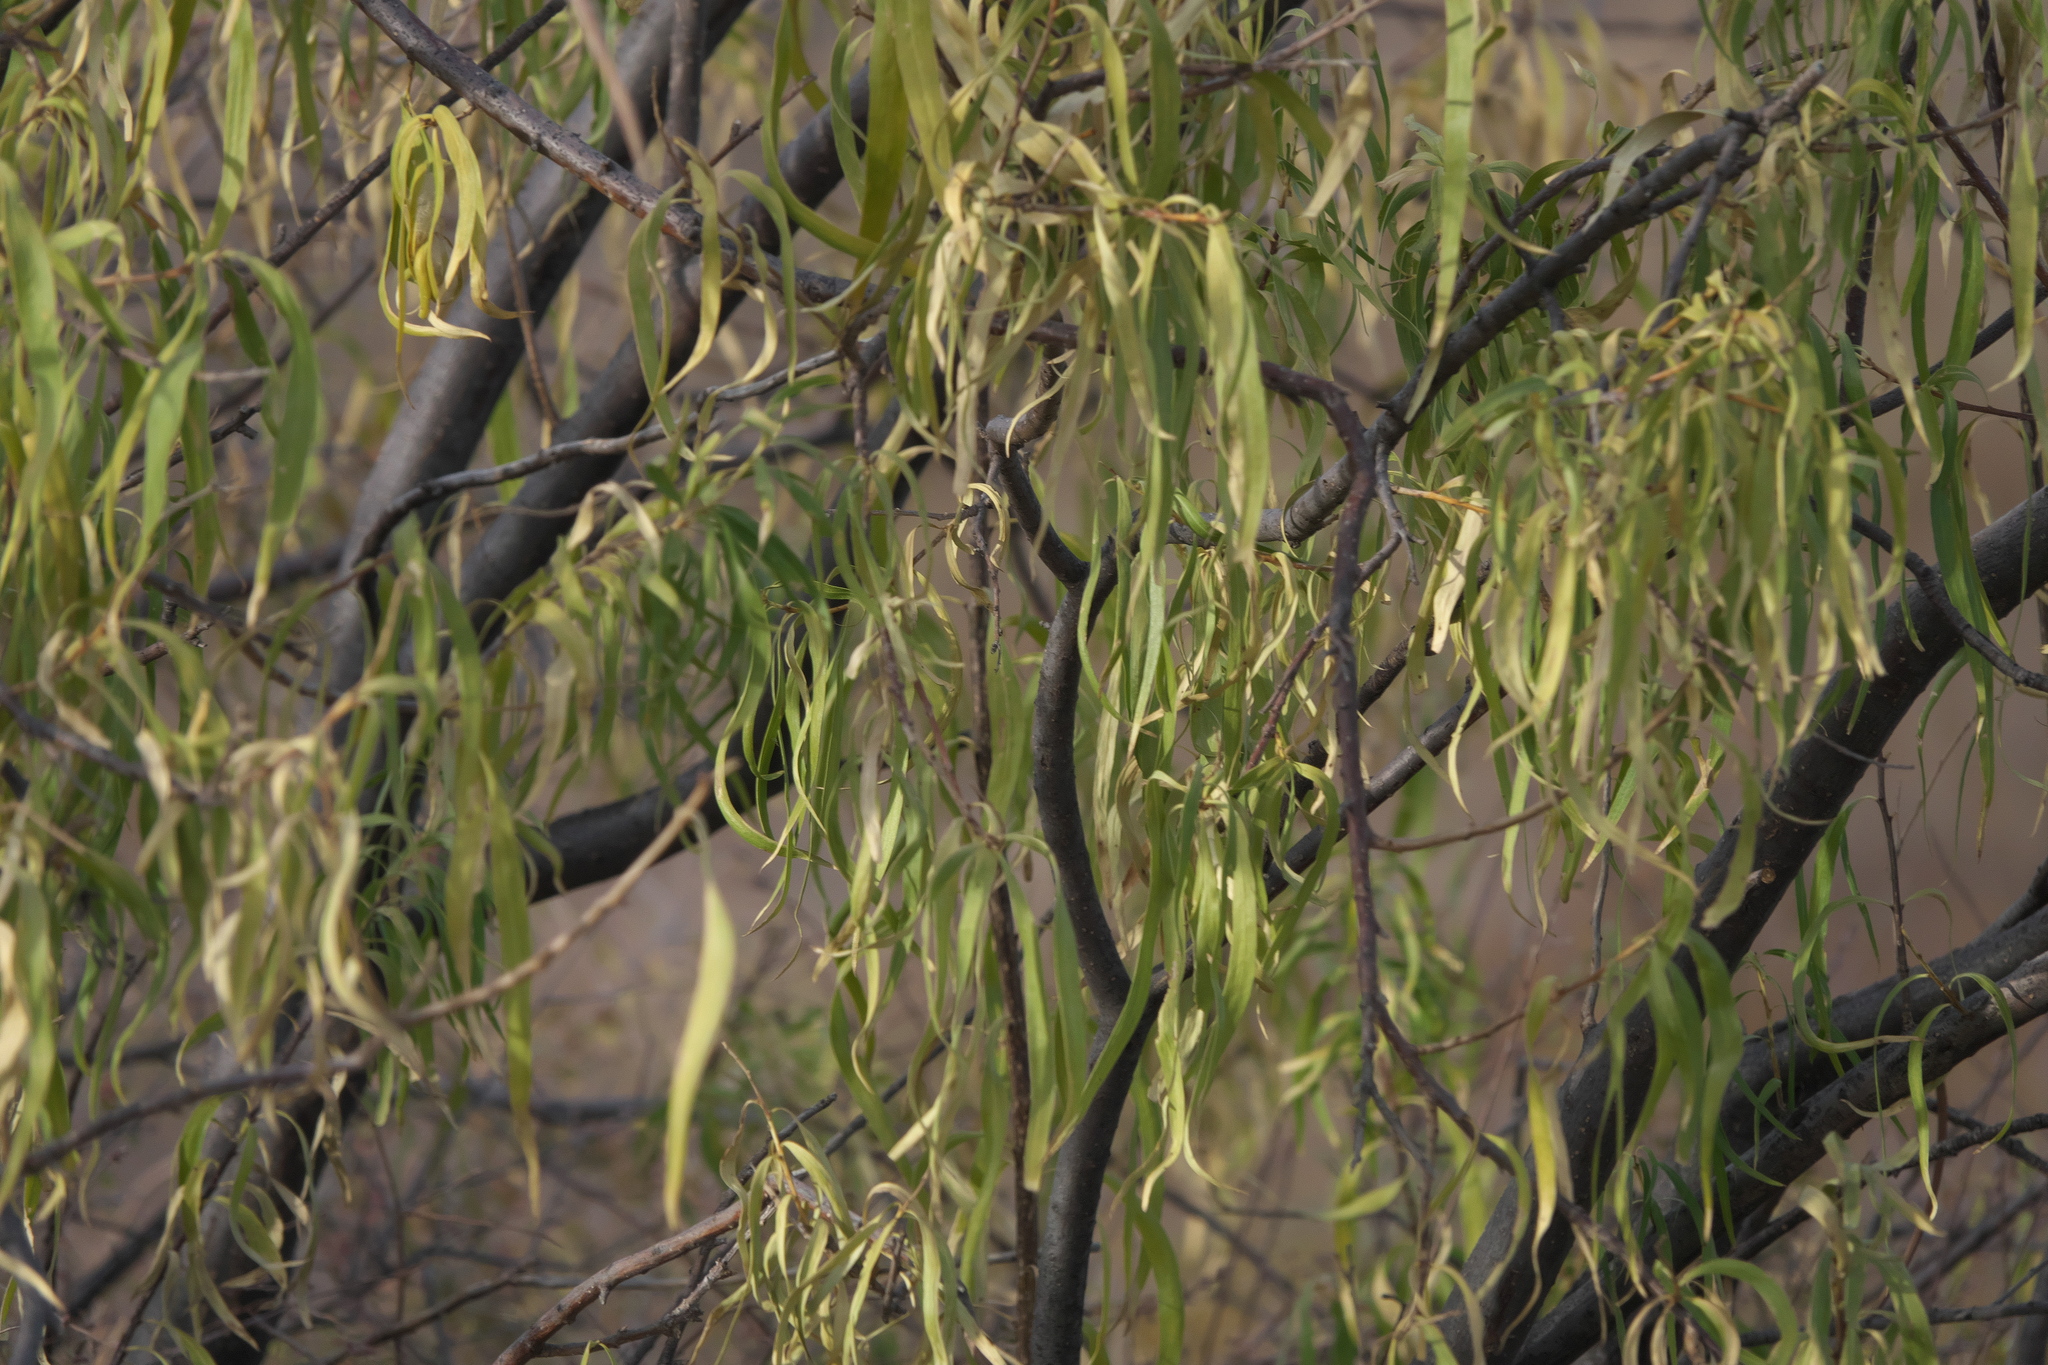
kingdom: Plantae
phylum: Tracheophyta
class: Magnoliopsida
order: Lamiales
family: Bignoniaceae
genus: Chilopsis
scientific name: Chilopsis linearis
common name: Desert-willow
